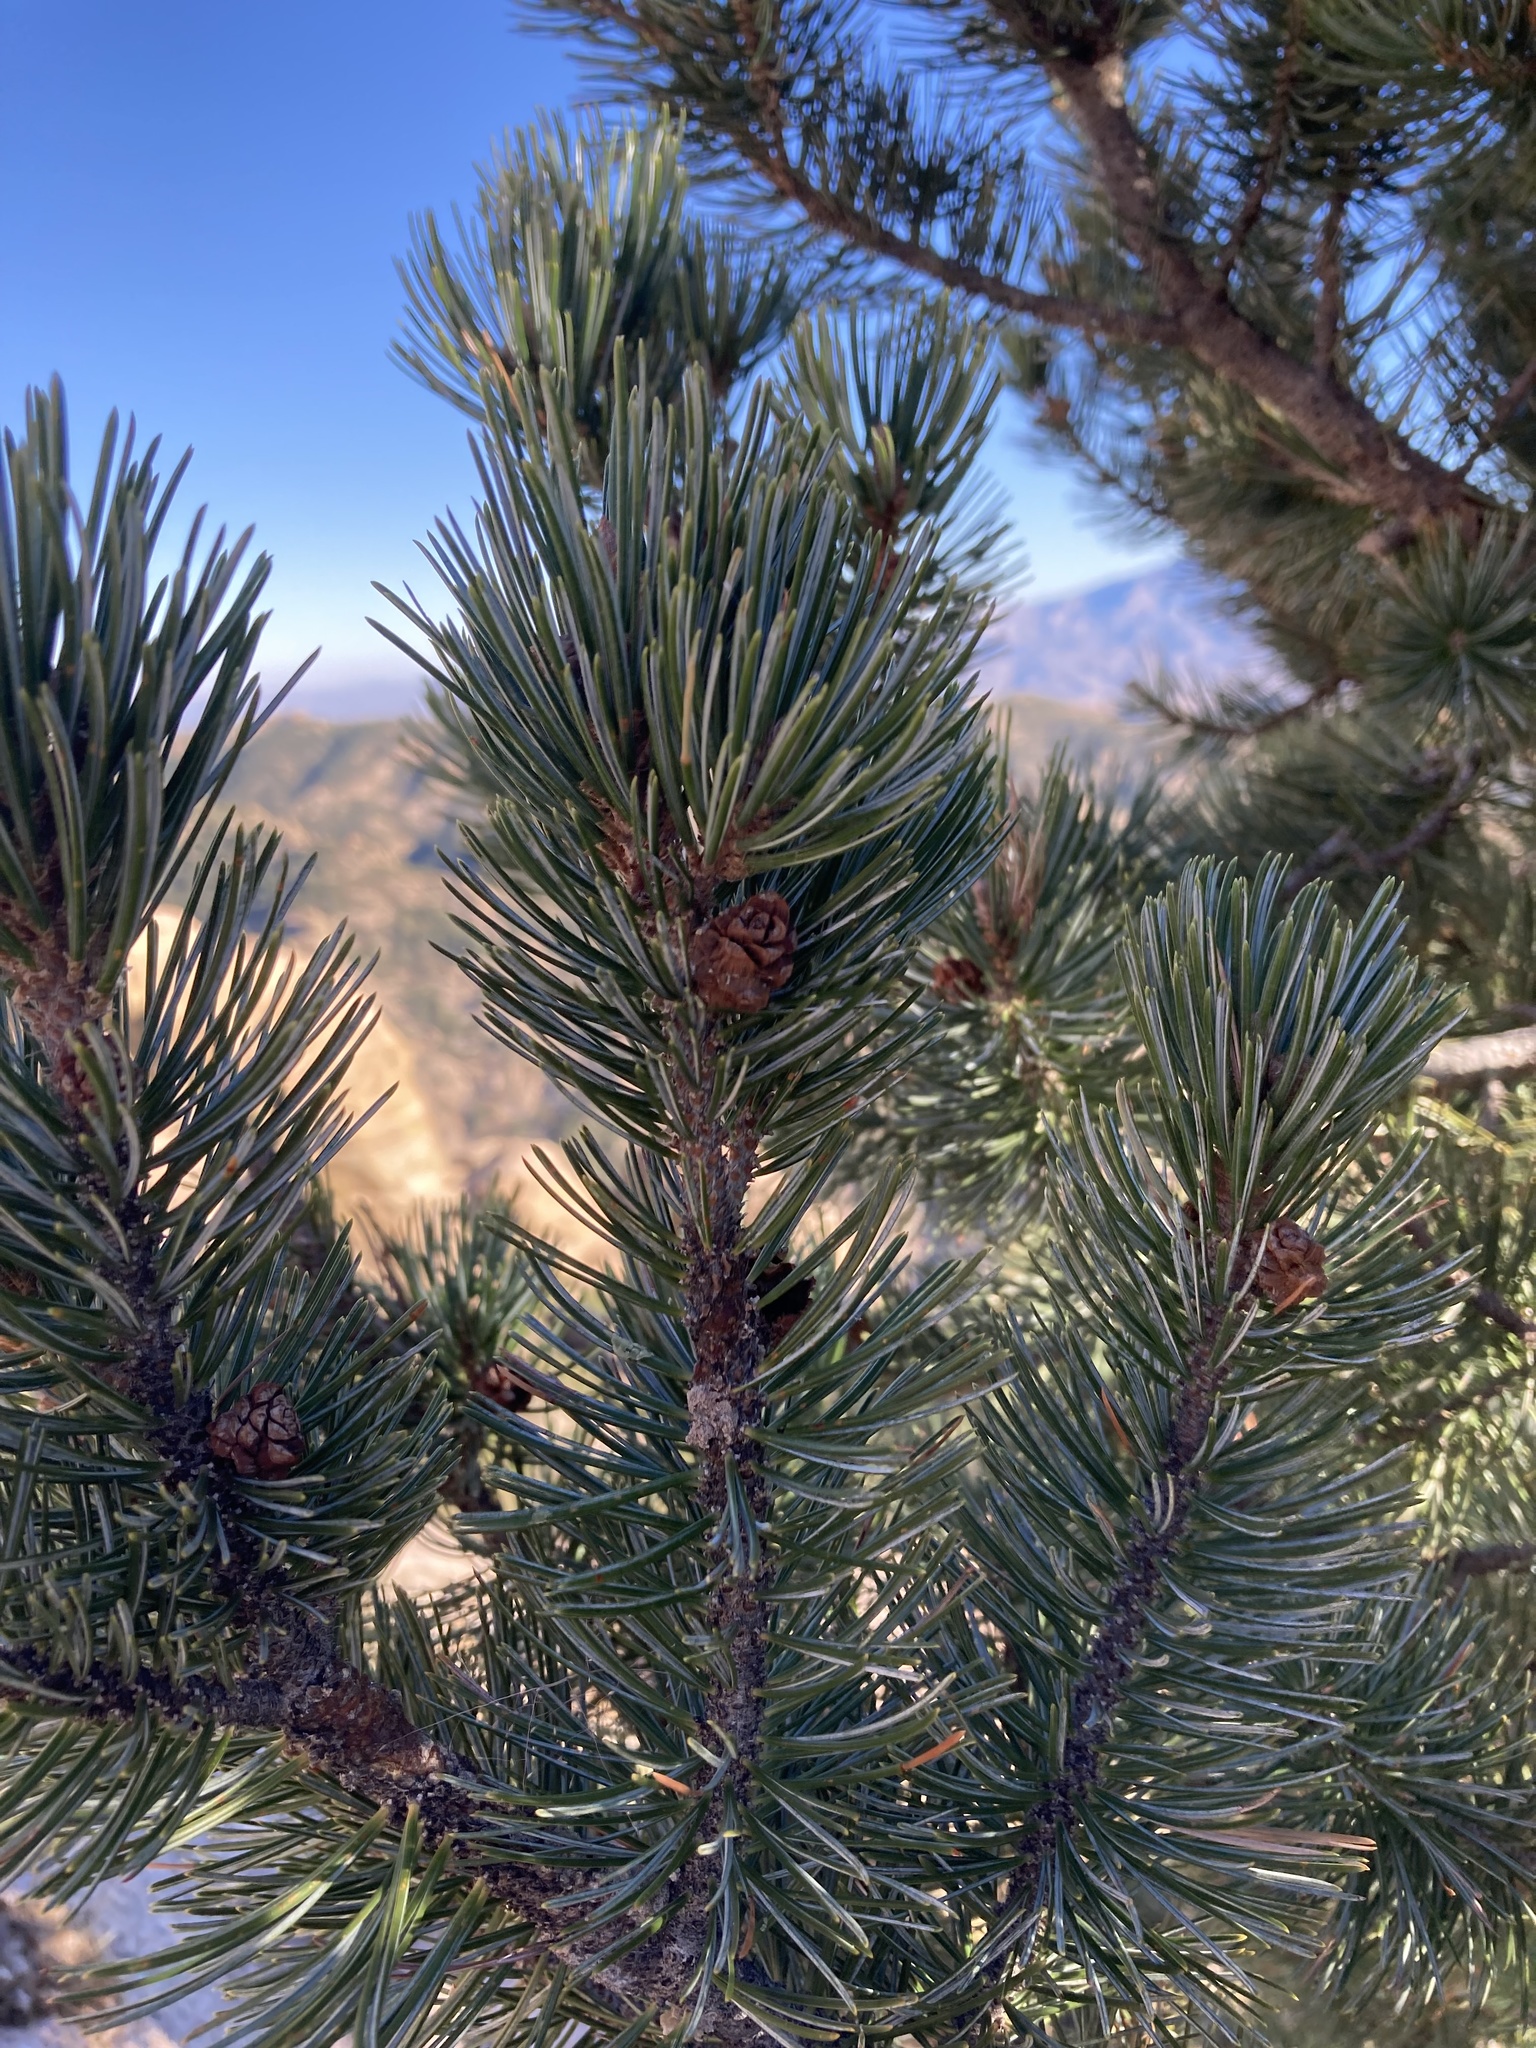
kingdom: Plantae
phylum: Tracheophyta
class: Pinopsida
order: Pinales
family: Pinaceae
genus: Pinus
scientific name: Pinus cembroides
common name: Mexican nut pine
